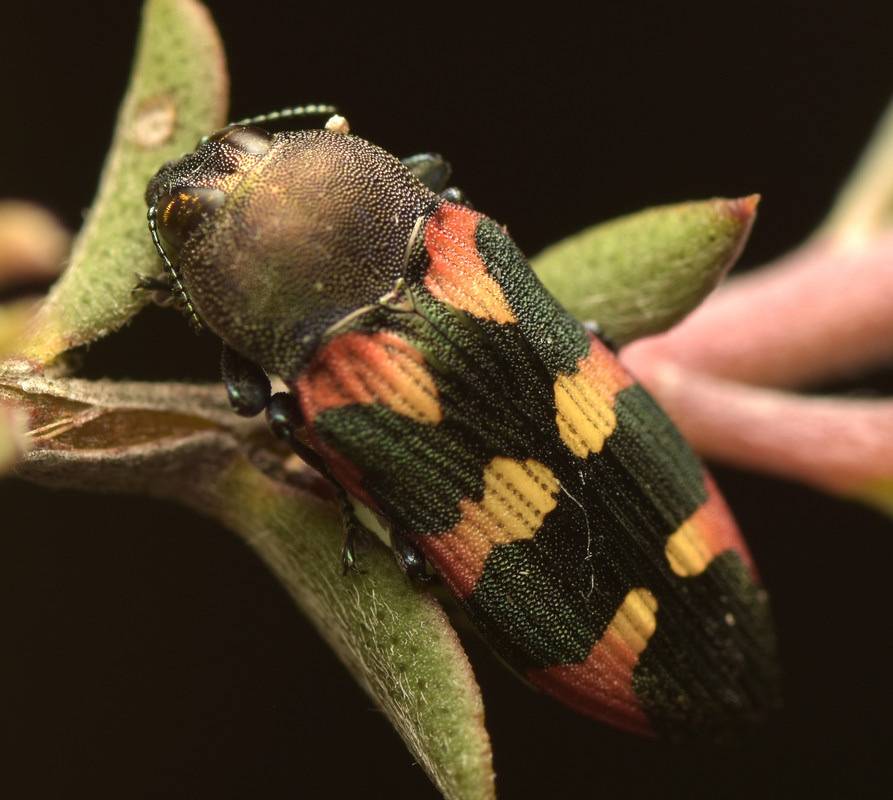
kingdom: Animalia
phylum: Arthropoda
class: Insecta
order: Coleoptera
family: Buprestidae
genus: Castiarina
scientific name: Castiarina sexplagiata
